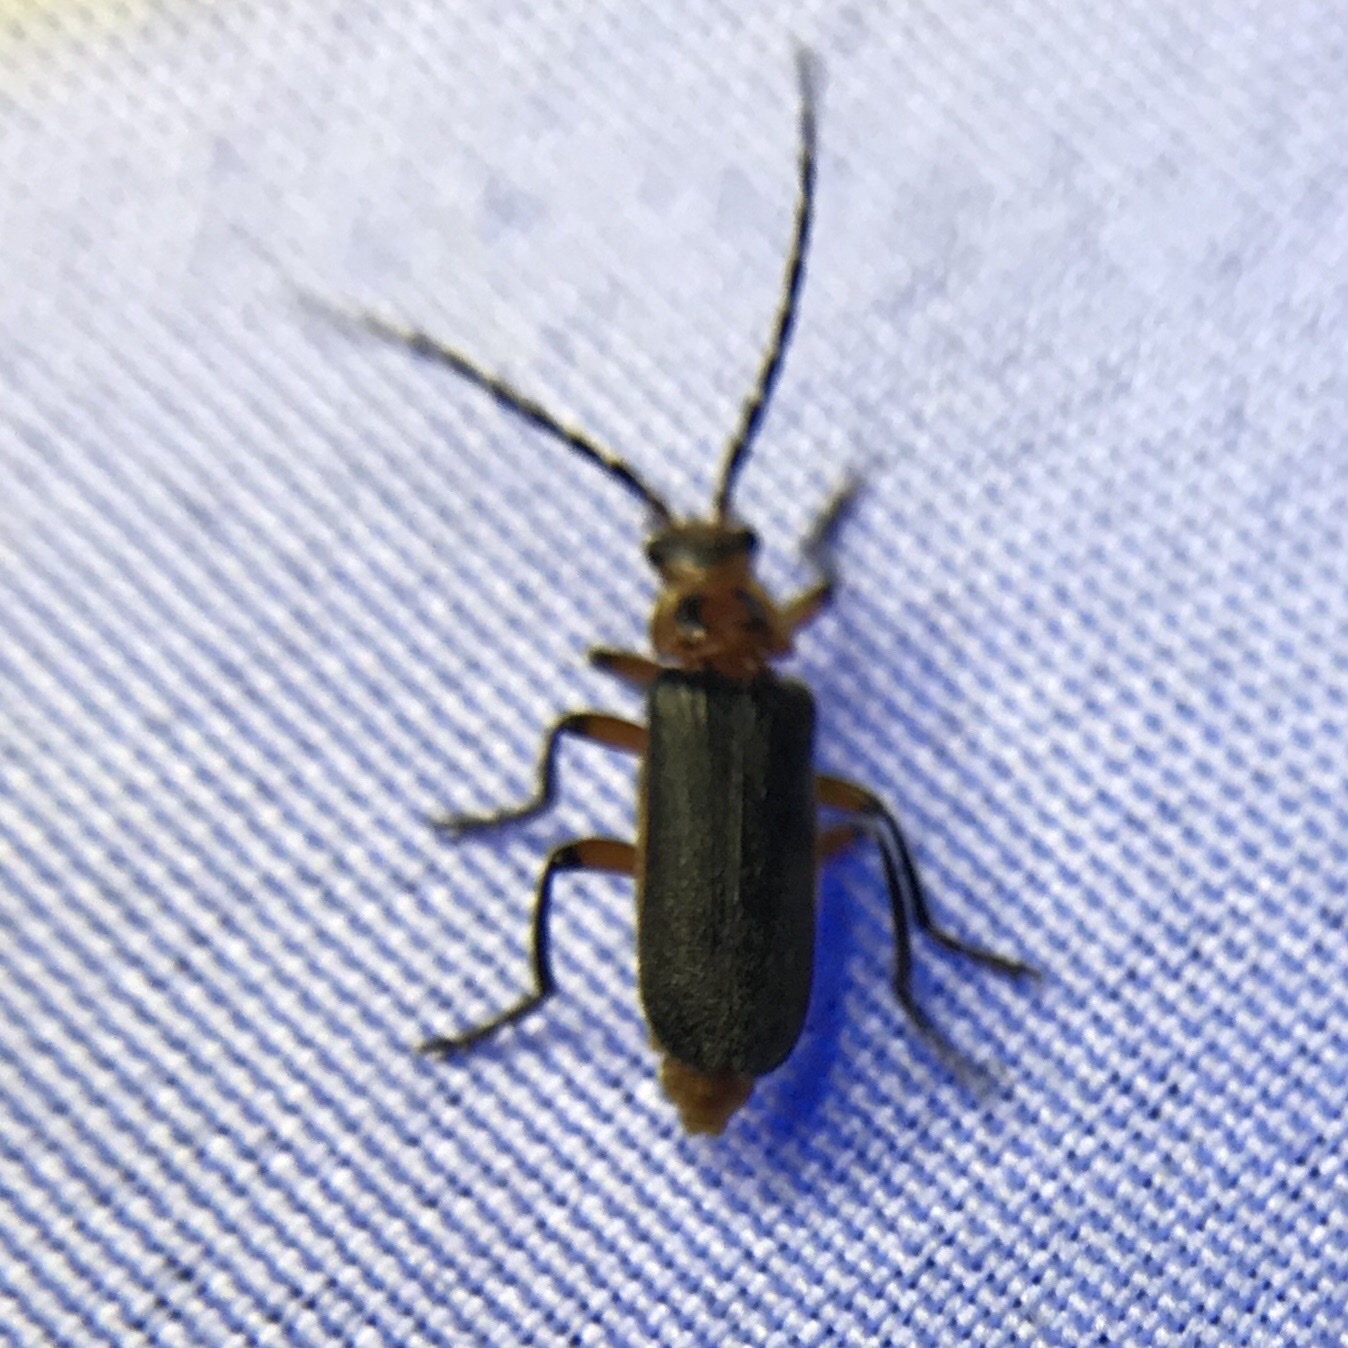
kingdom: Animalia
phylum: Arthropoda
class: Insecta
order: Coleoptera
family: Cantharidae
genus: Atalantycha
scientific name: Atalantycha bilineata
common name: Two-lined leatherwing
